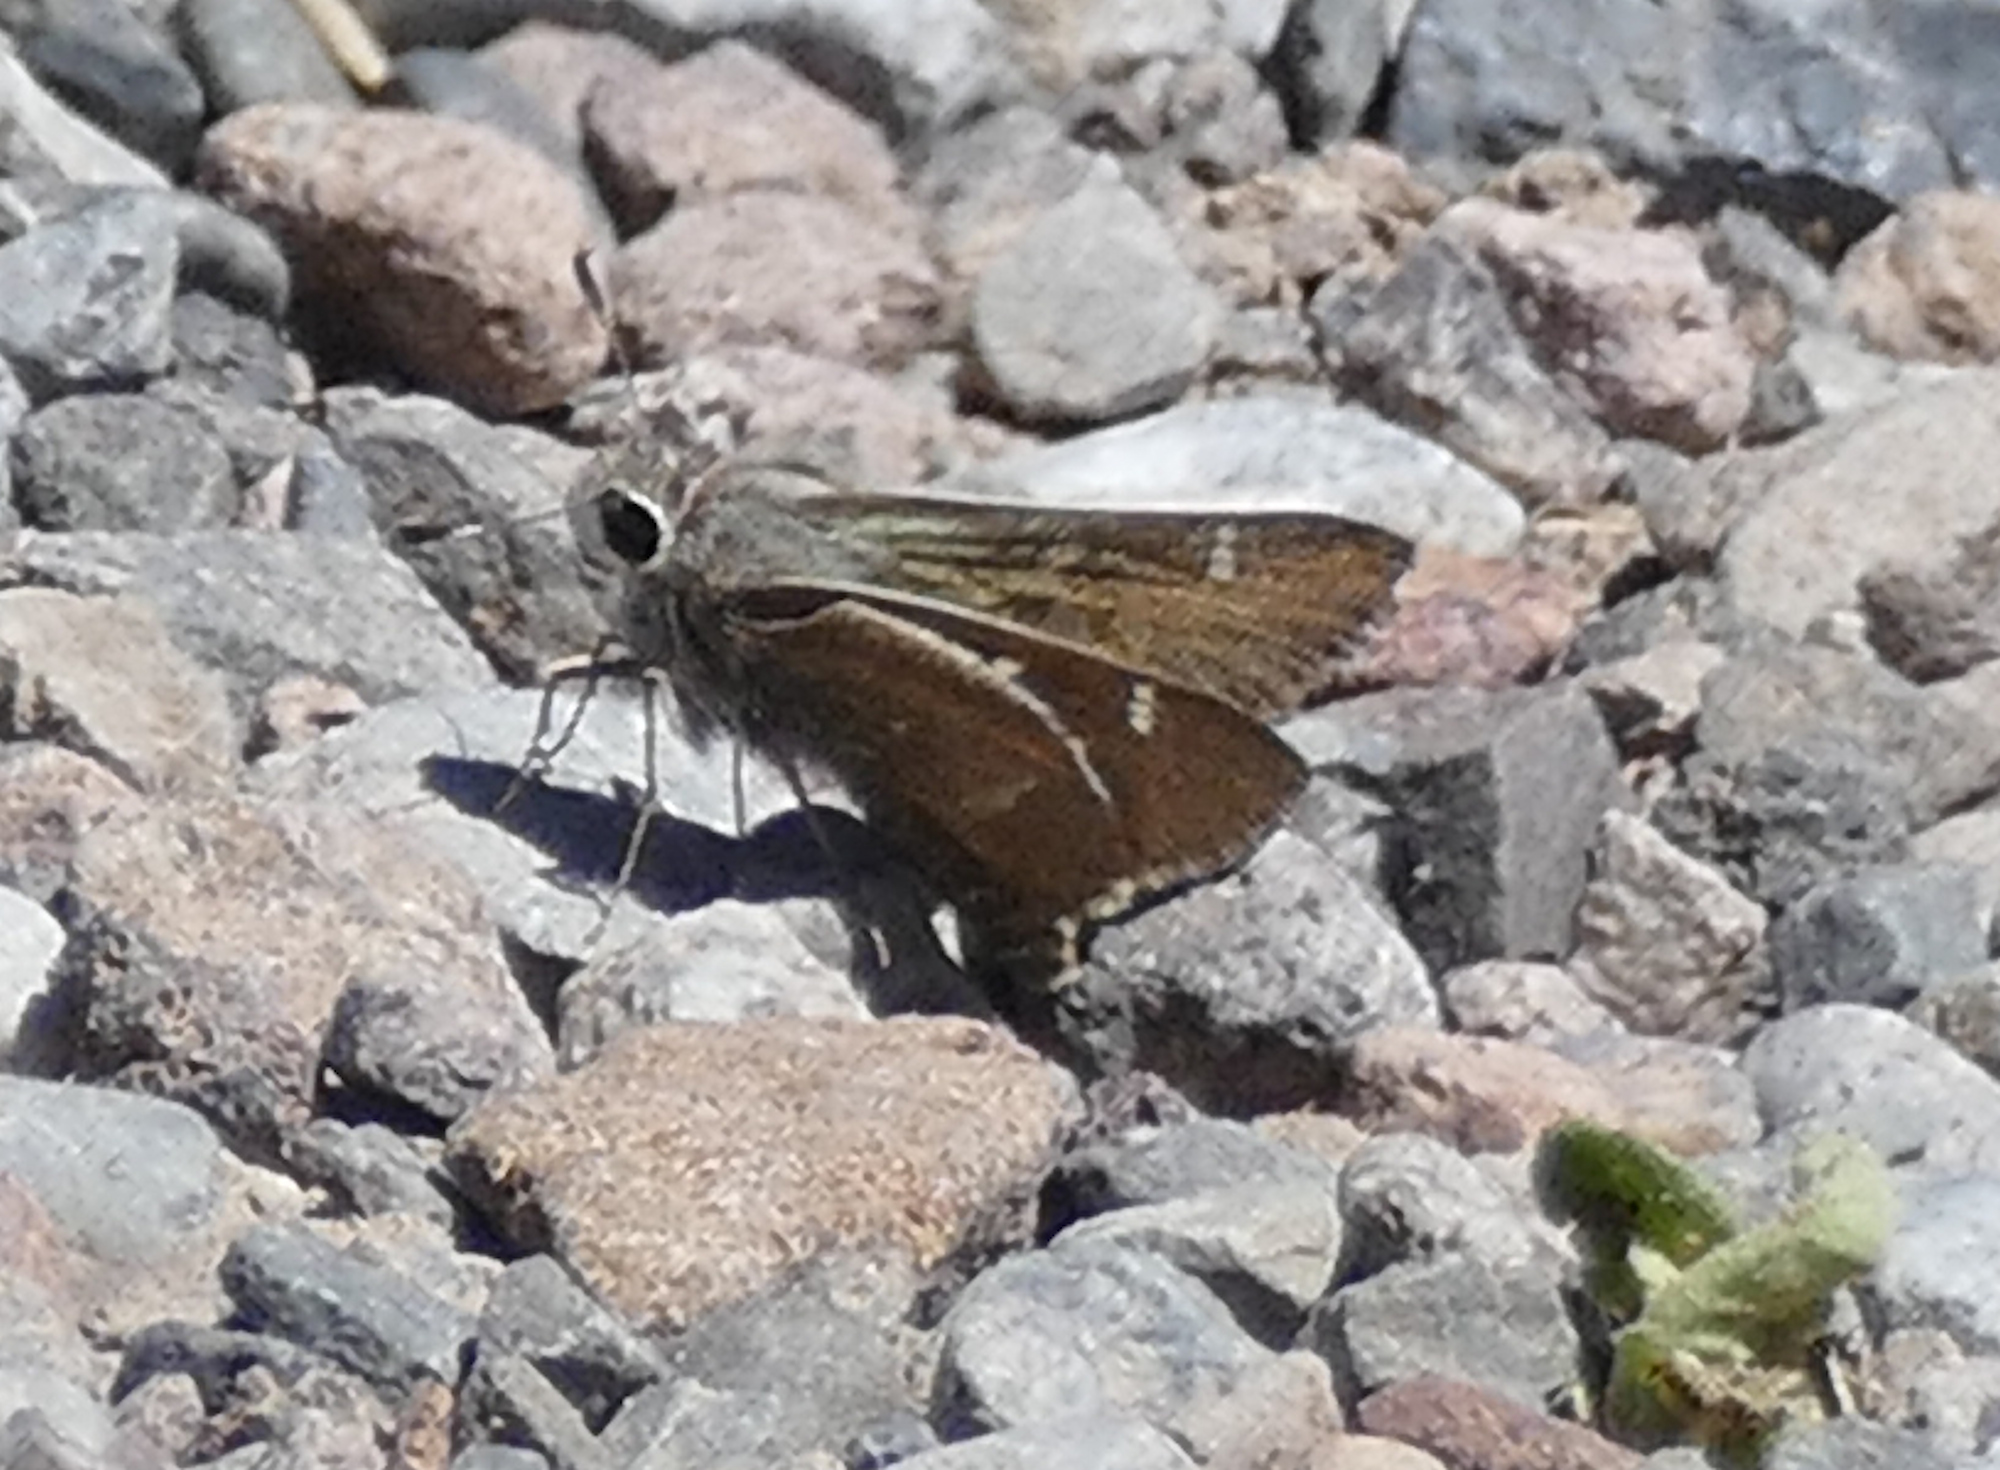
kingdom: Animalia
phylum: Arthropoda
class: Insecta
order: Lepidoptera
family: Hesperiidae
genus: Atrytonopsis
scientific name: Atrytonopsis pittacus
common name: White-barred skipper
